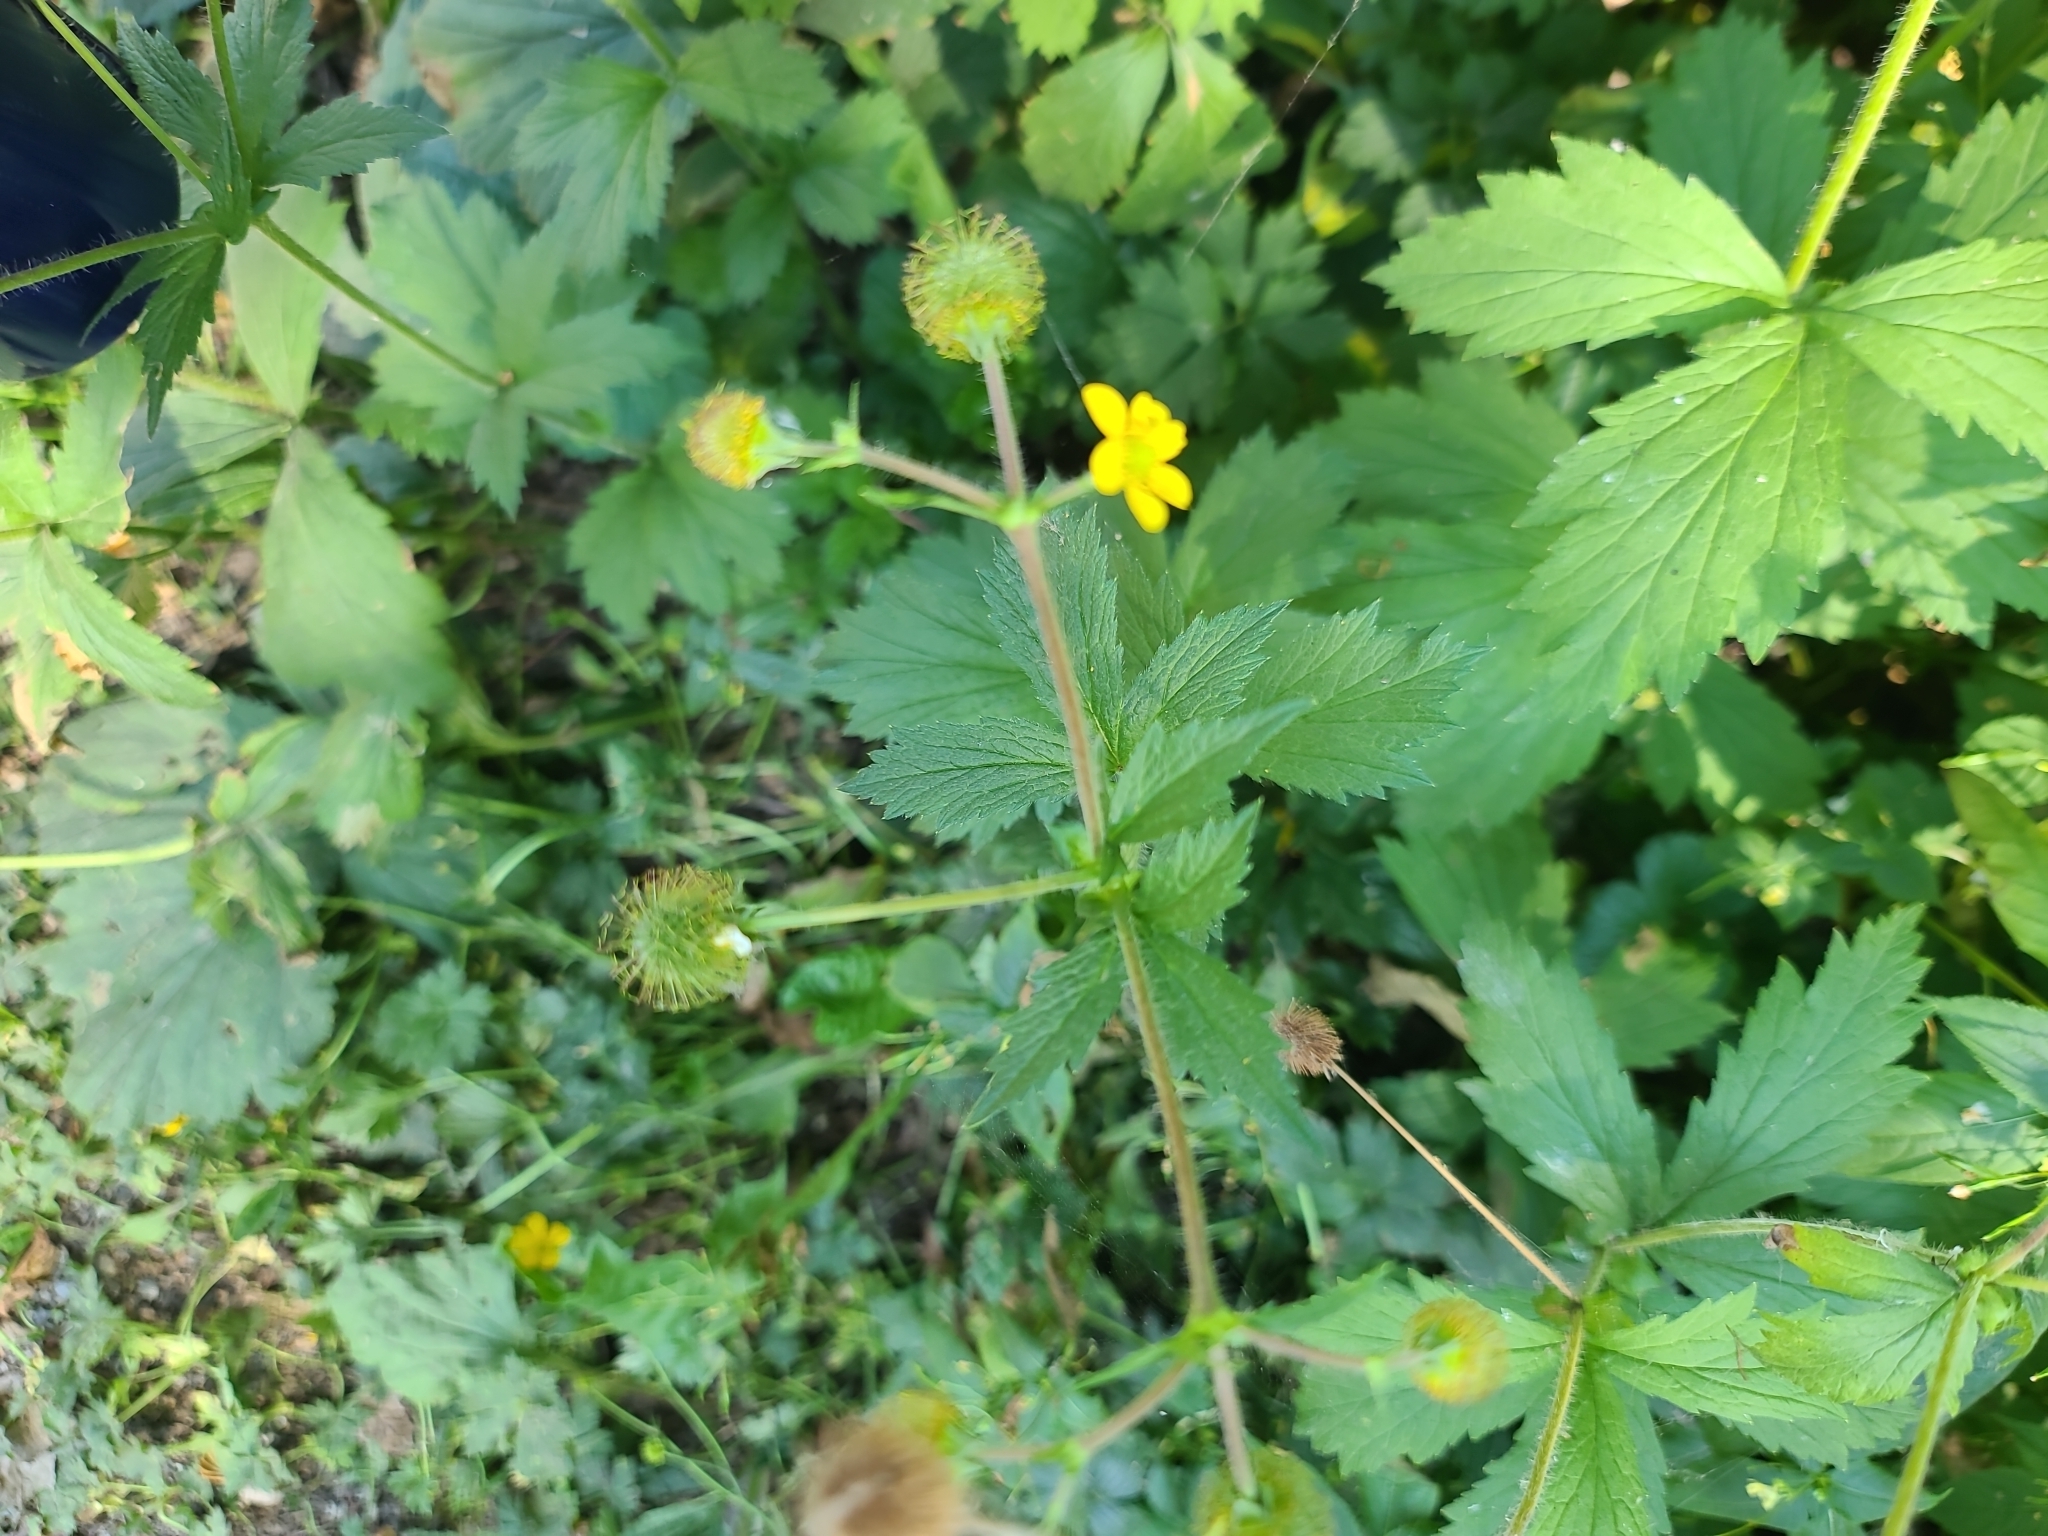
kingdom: Plantae
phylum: Tracheophyta
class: Magnoliopsida
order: Rosales
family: Rosaceae
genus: Geum
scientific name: Geum macrophyllum
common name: Large-leaved avens
